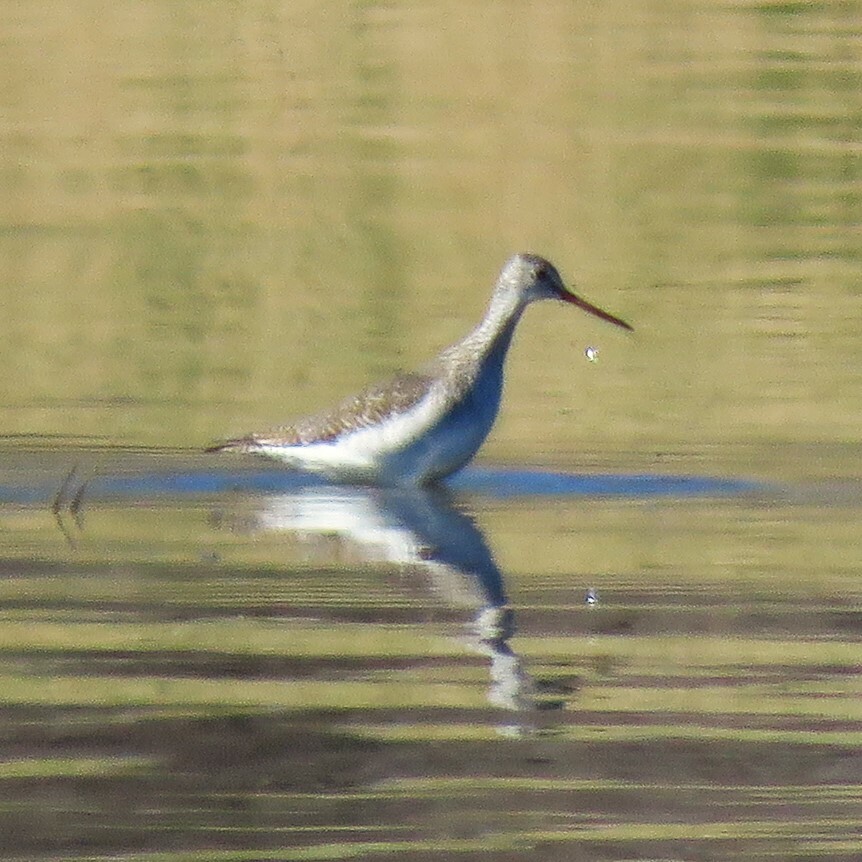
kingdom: Animalia
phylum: Chordata
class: Aves
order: Charadriiformes
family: Scolopacidae
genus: Tringa
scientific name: Tringa melanoleuca
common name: Greater yellowlegs
